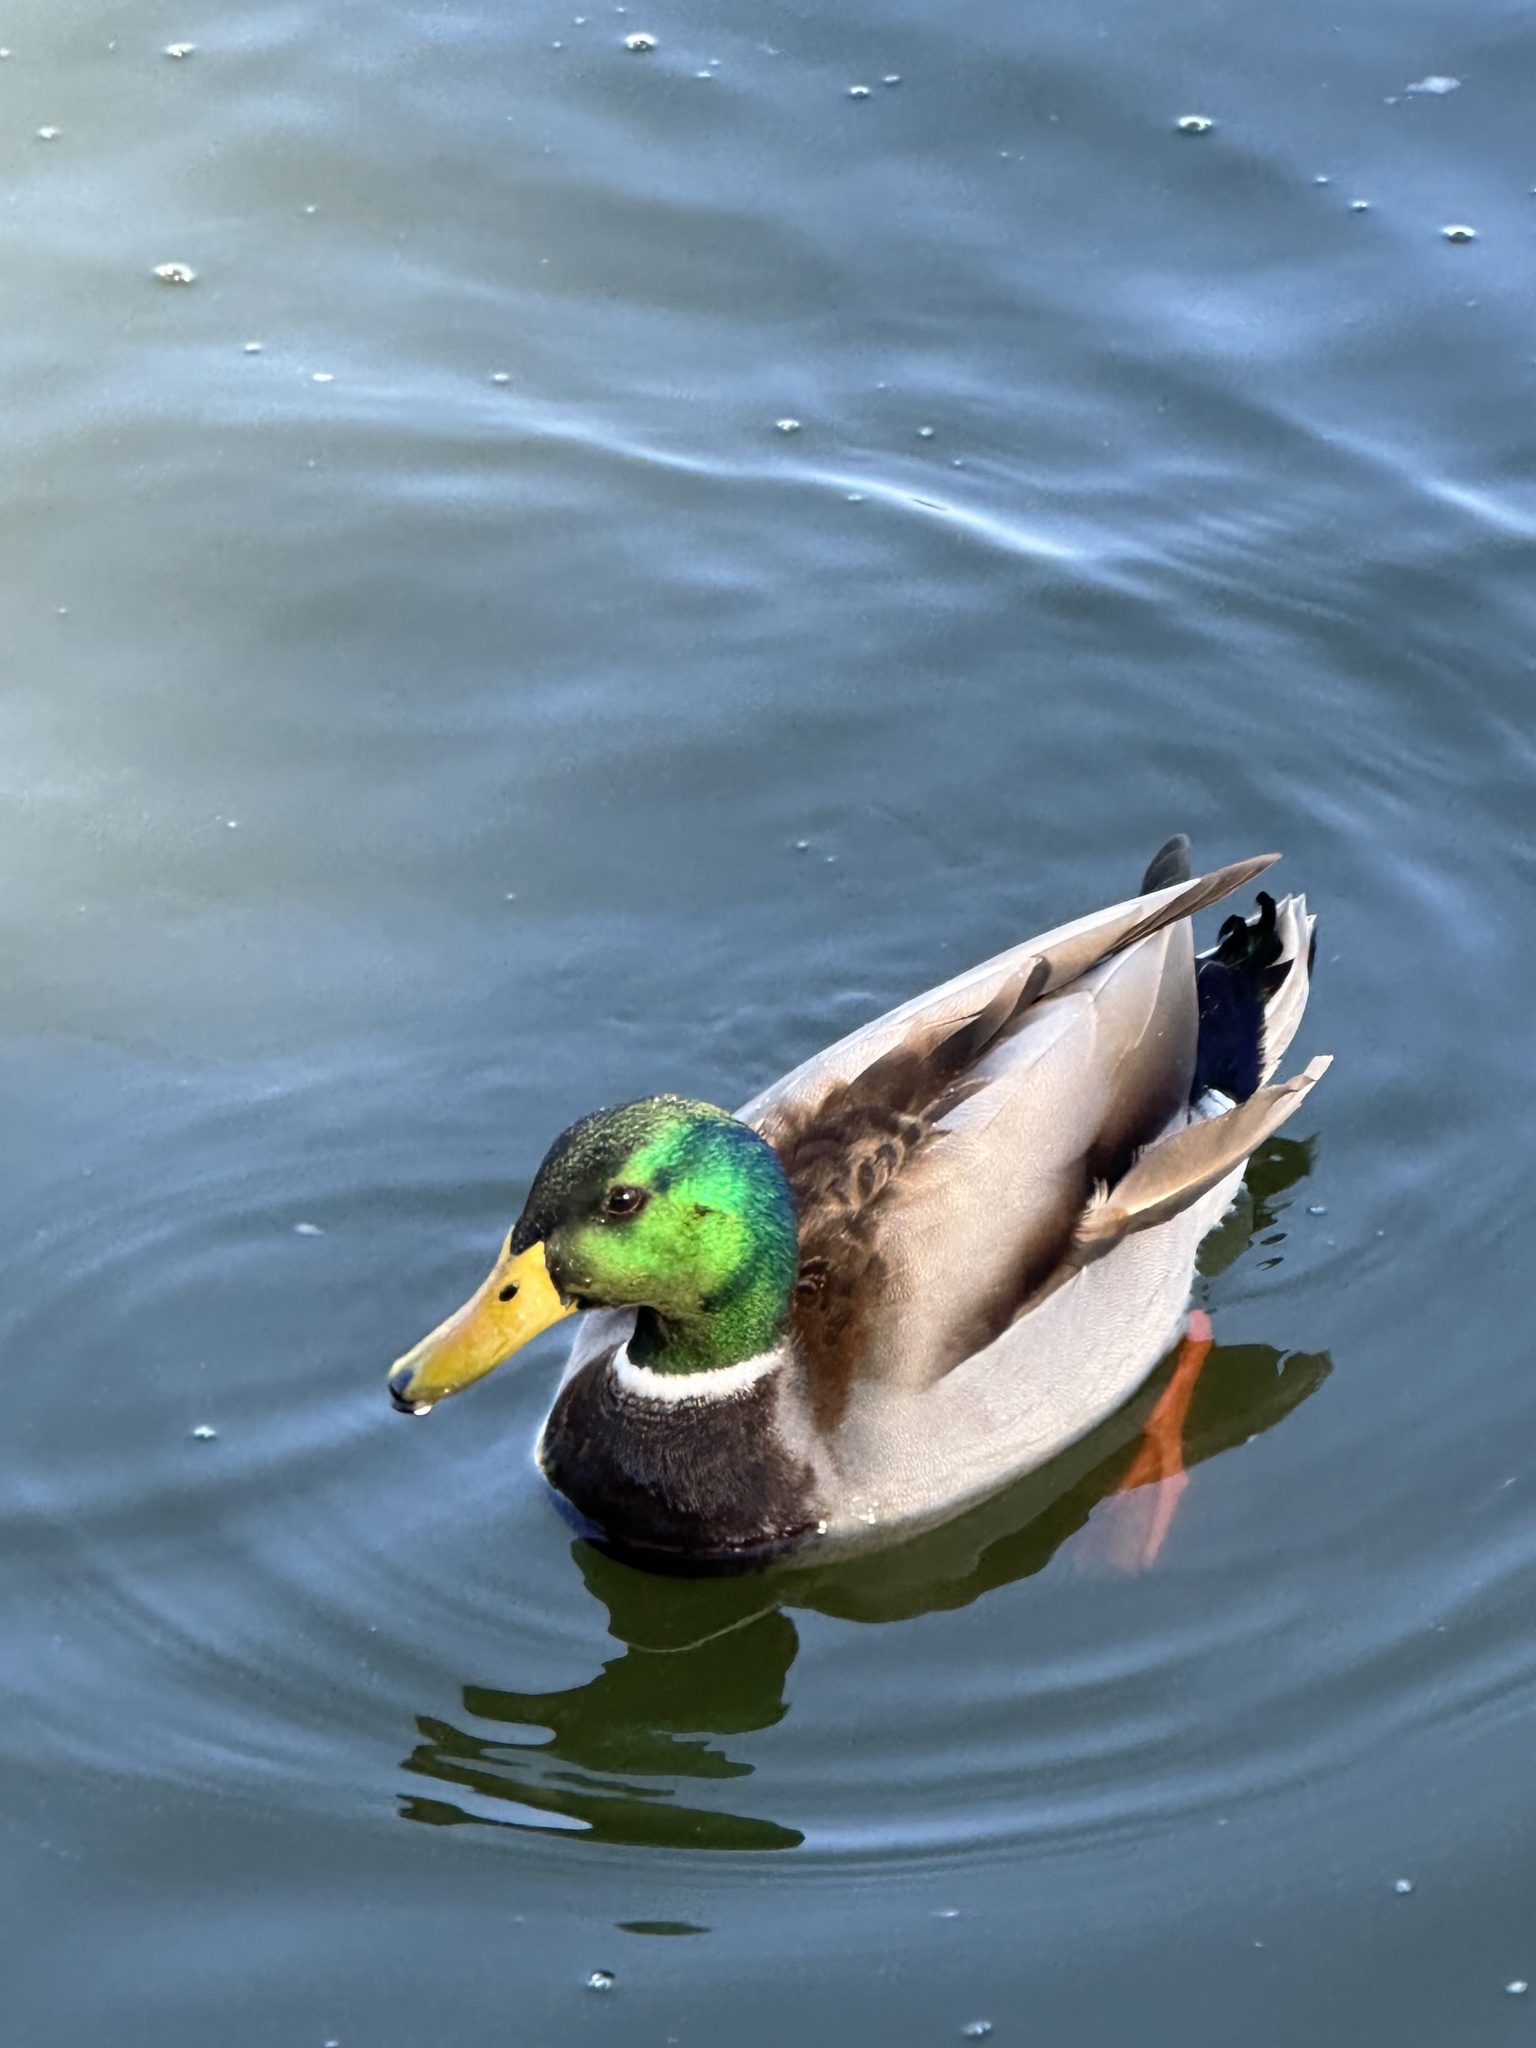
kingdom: Animalia
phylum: Chordata
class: Aves
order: Anseriformes
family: Anatidae
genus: Anas
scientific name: Anas platyrhynchos
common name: Mallard
